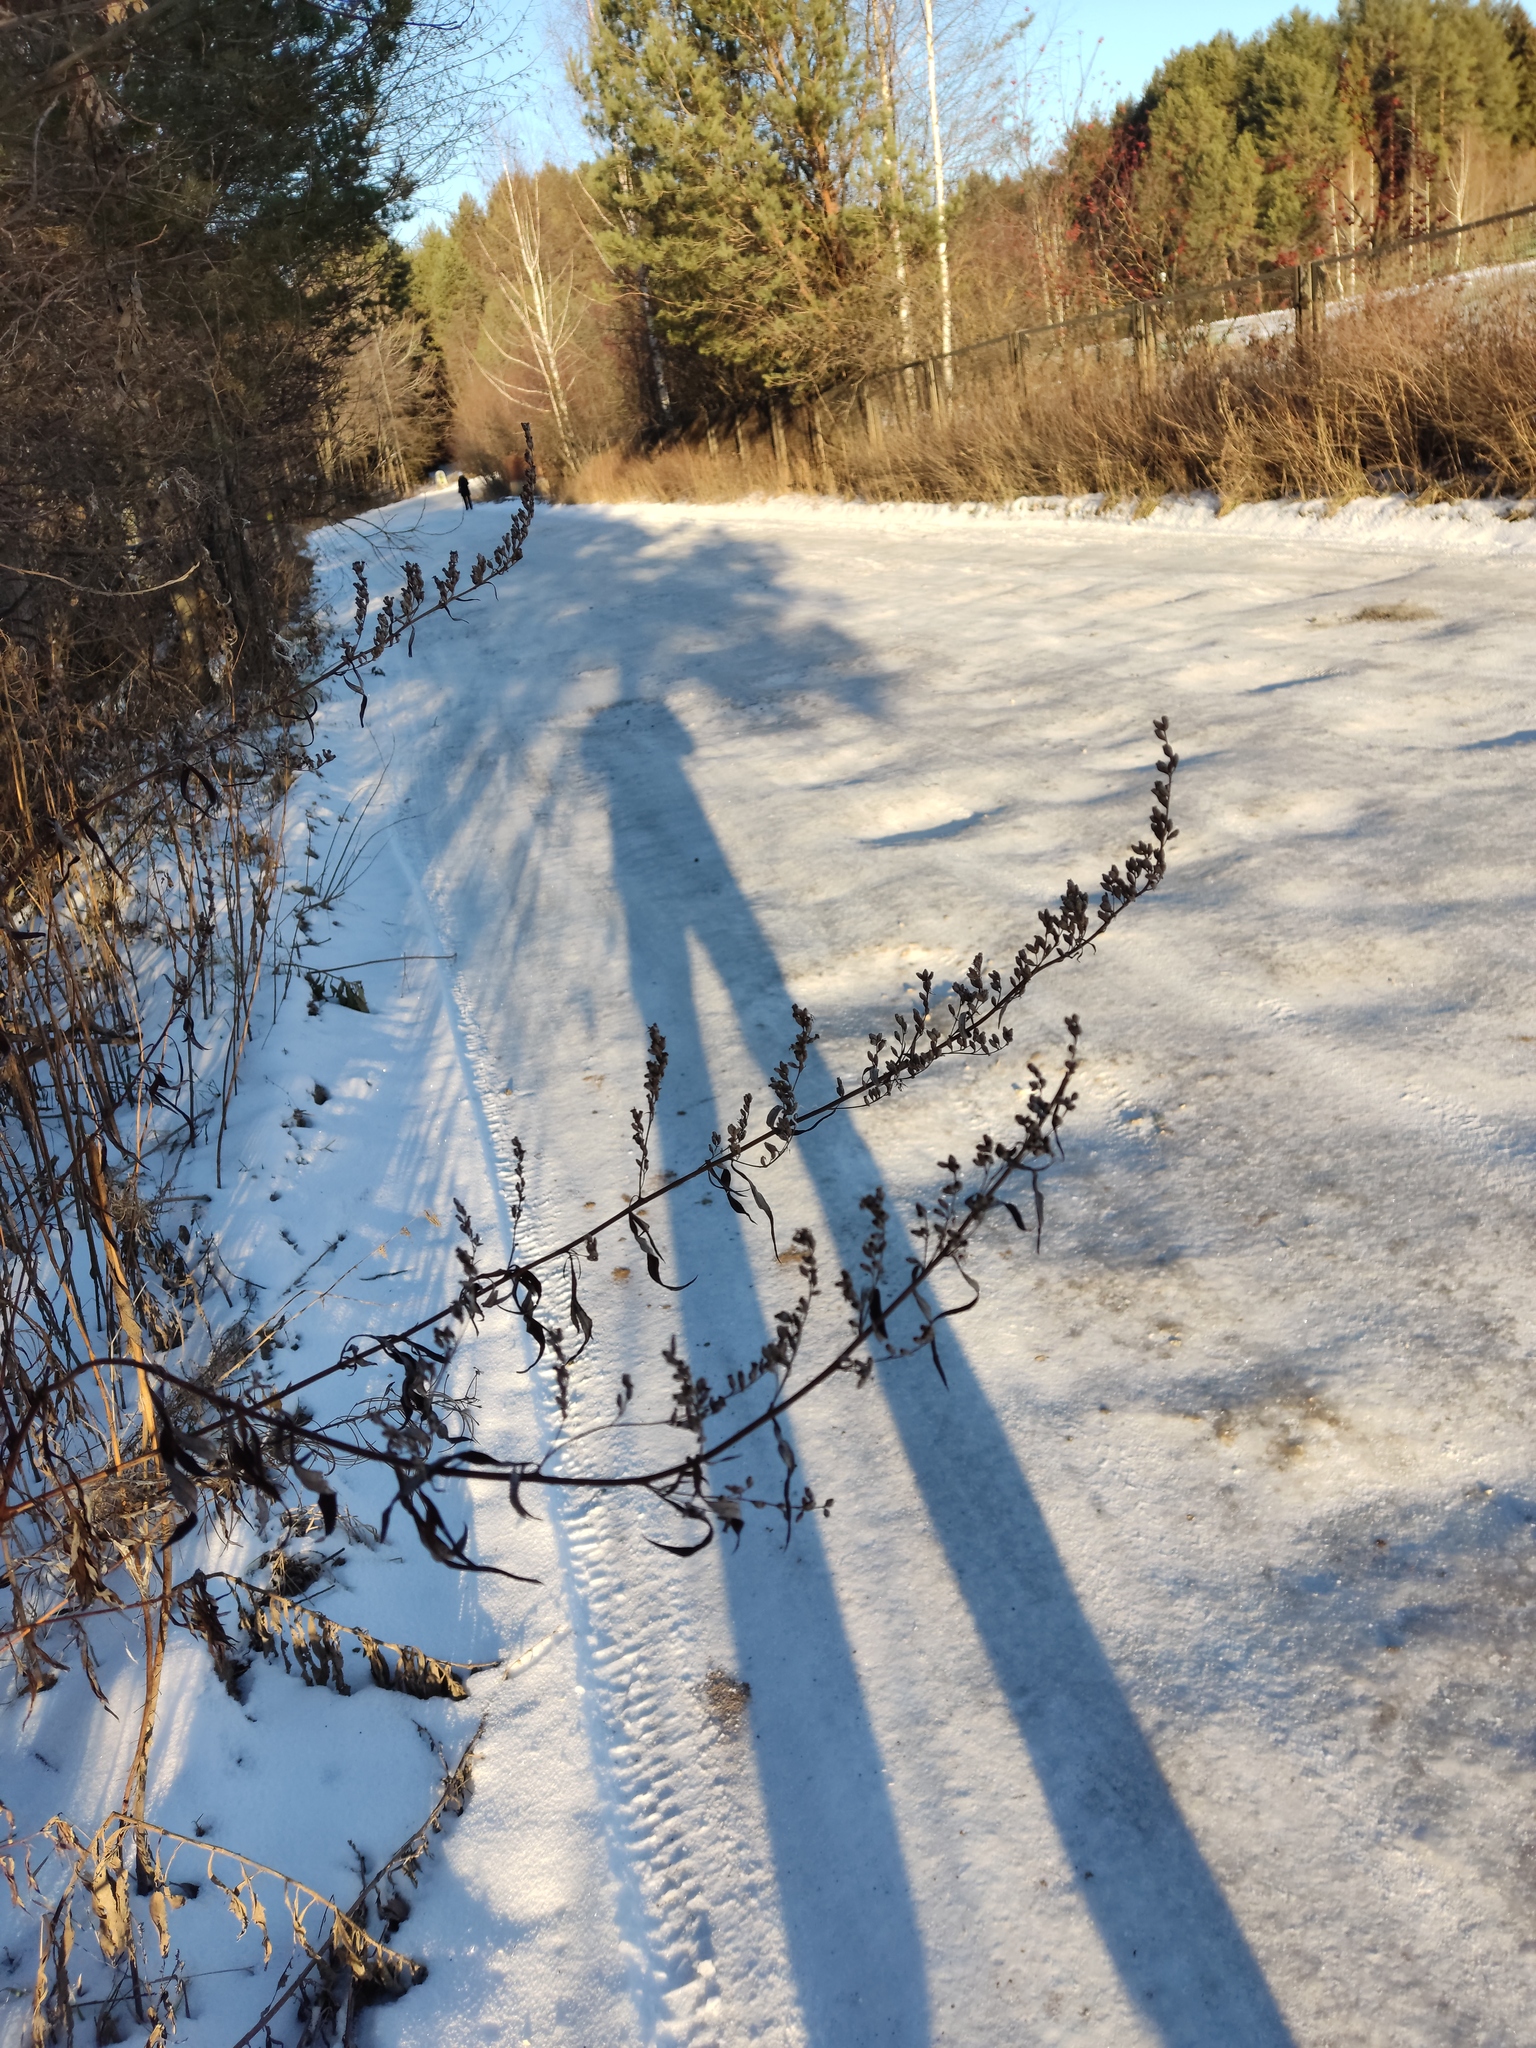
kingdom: Plantae
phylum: Tracheophyta
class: Magnoliopsida
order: Asterales
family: Asteraceae
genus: Artemisia
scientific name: Artemisia vulgaris
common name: Mugwort
